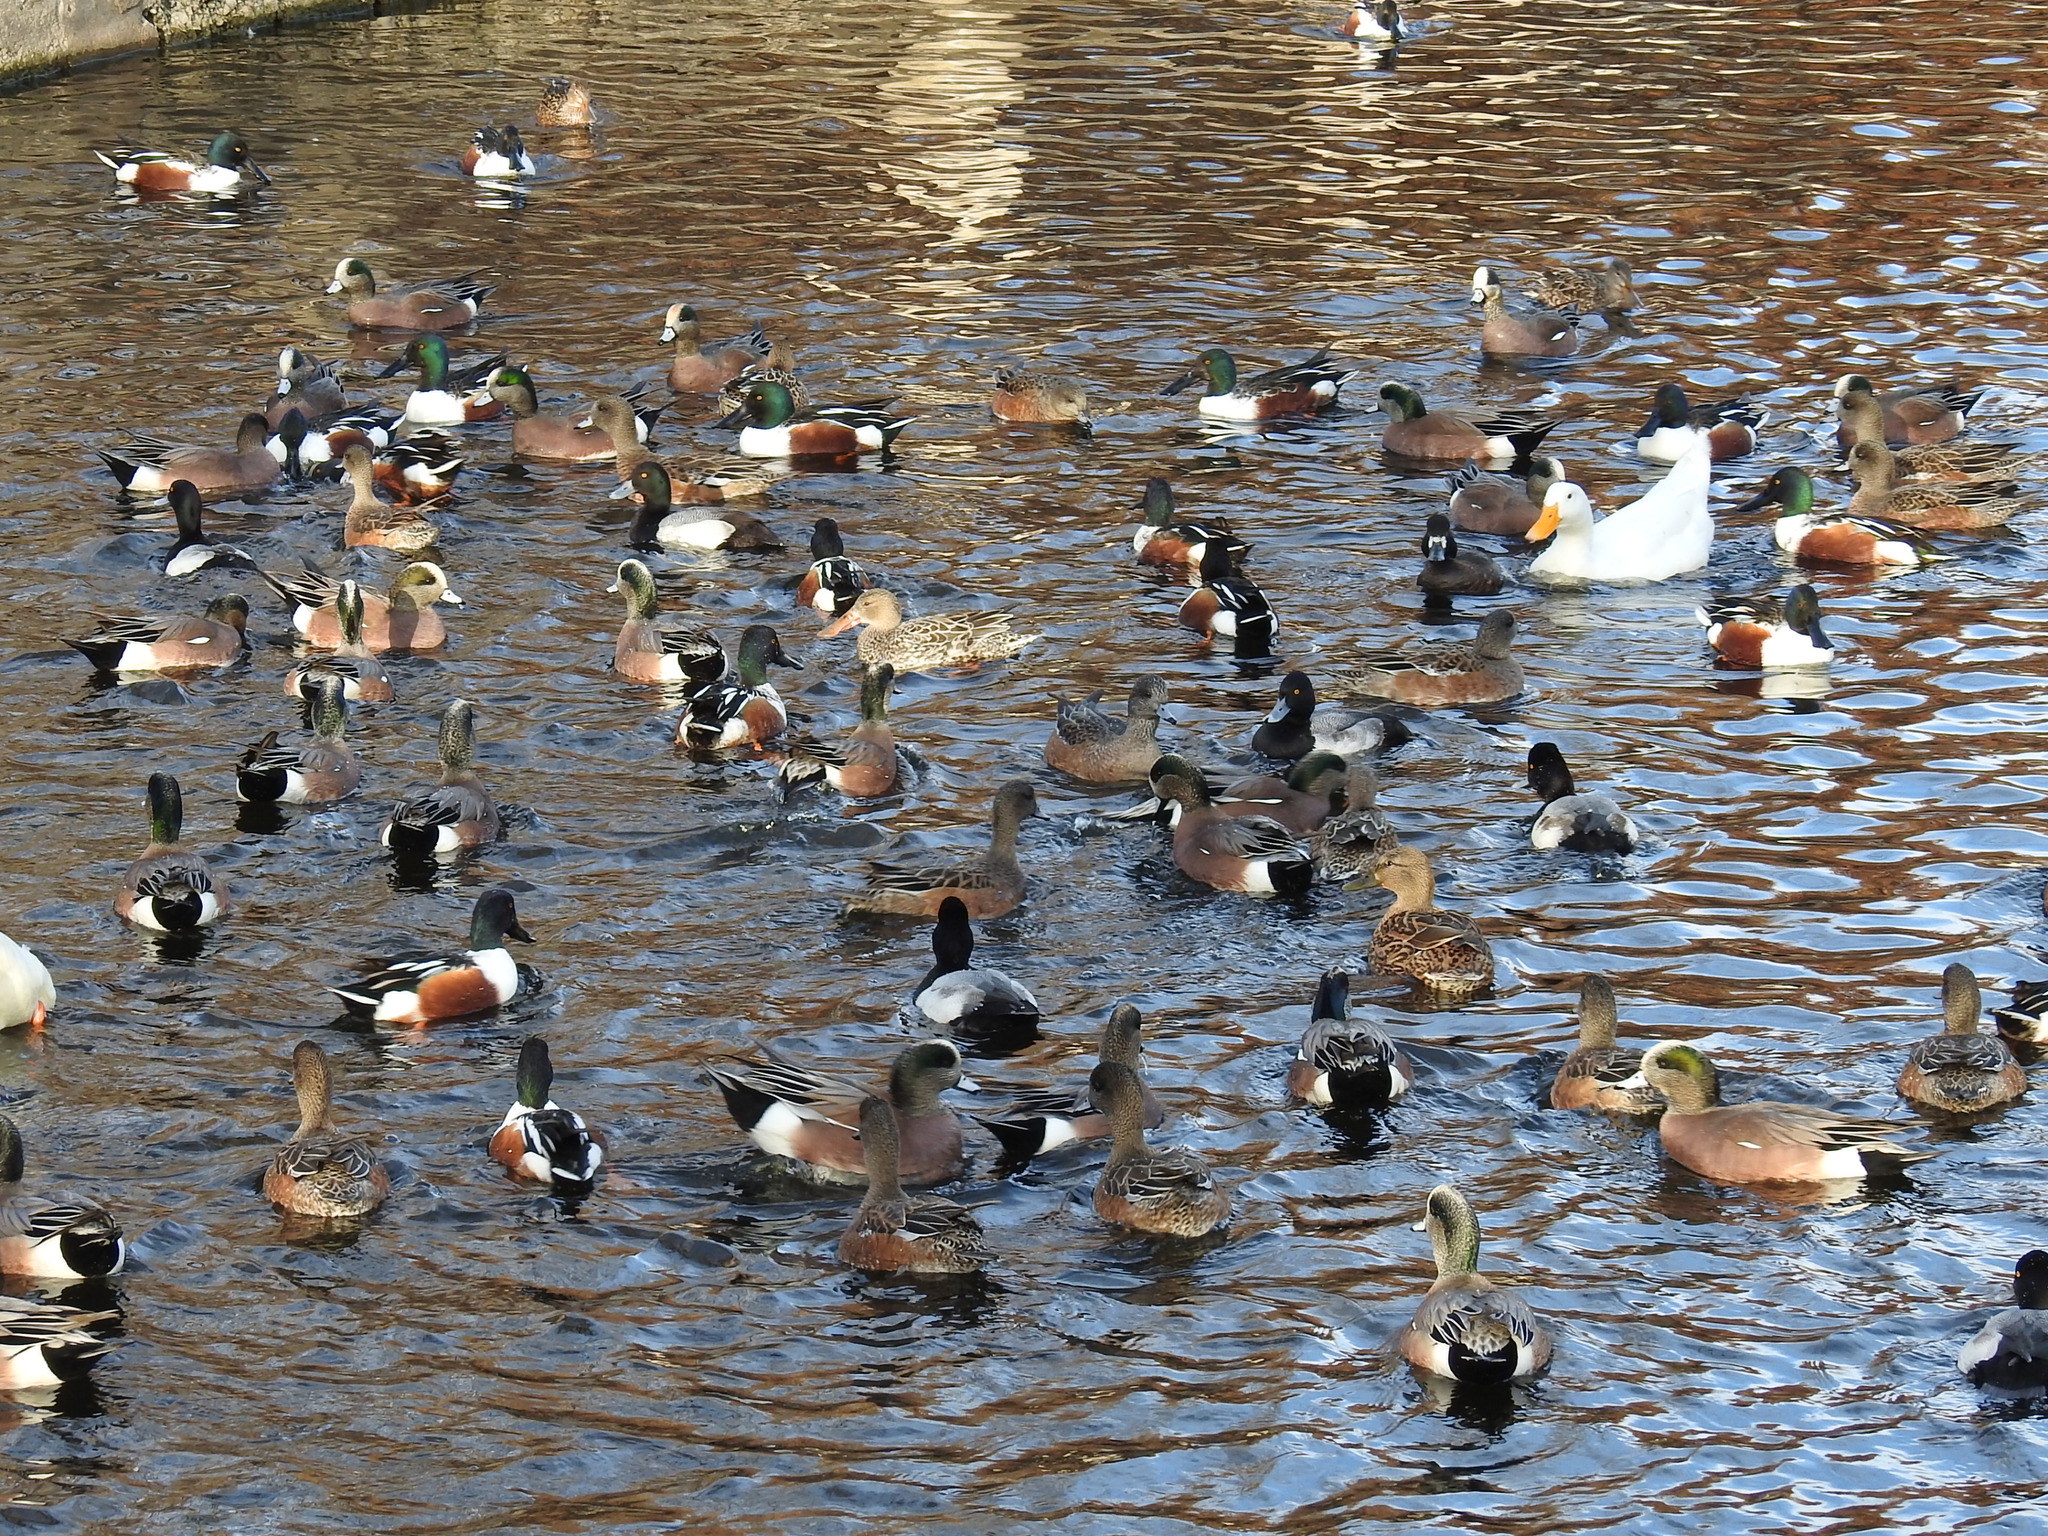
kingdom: Animalia
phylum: Chordata
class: Aves
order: Anseriformes
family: Anatidae
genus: Aix
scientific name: Aix sponsa
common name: Wood duck
